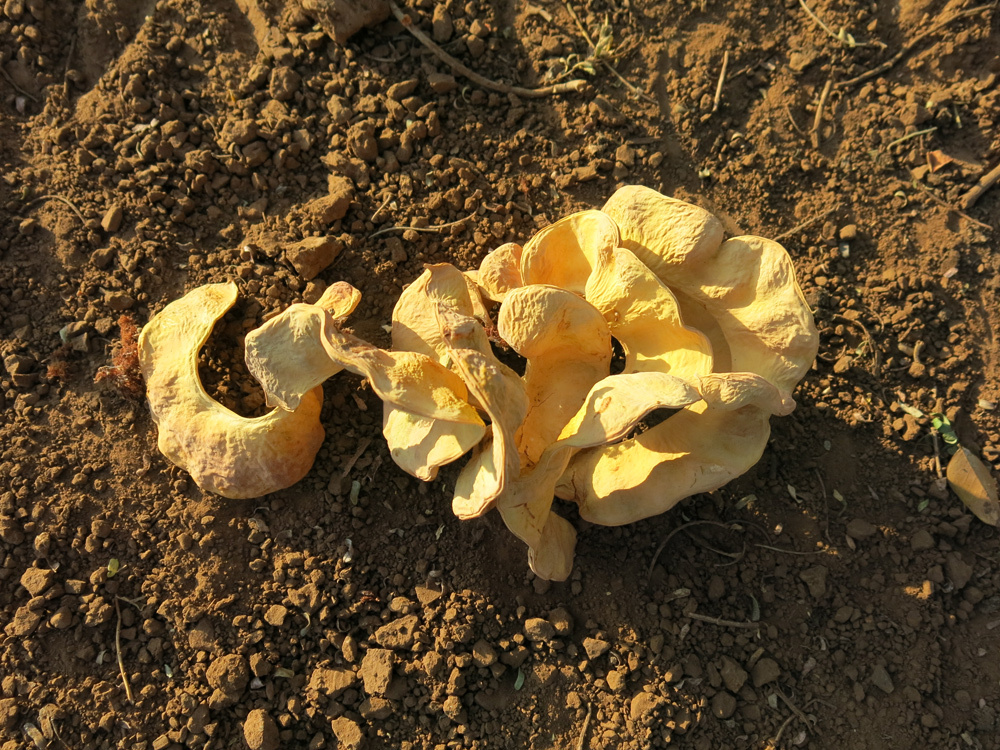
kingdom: Plantae
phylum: Tracheophyta
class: Magnoliopsida
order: Fabales
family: Fabaceae
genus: Faidherbia
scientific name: Faidherbia albida
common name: Anatree
